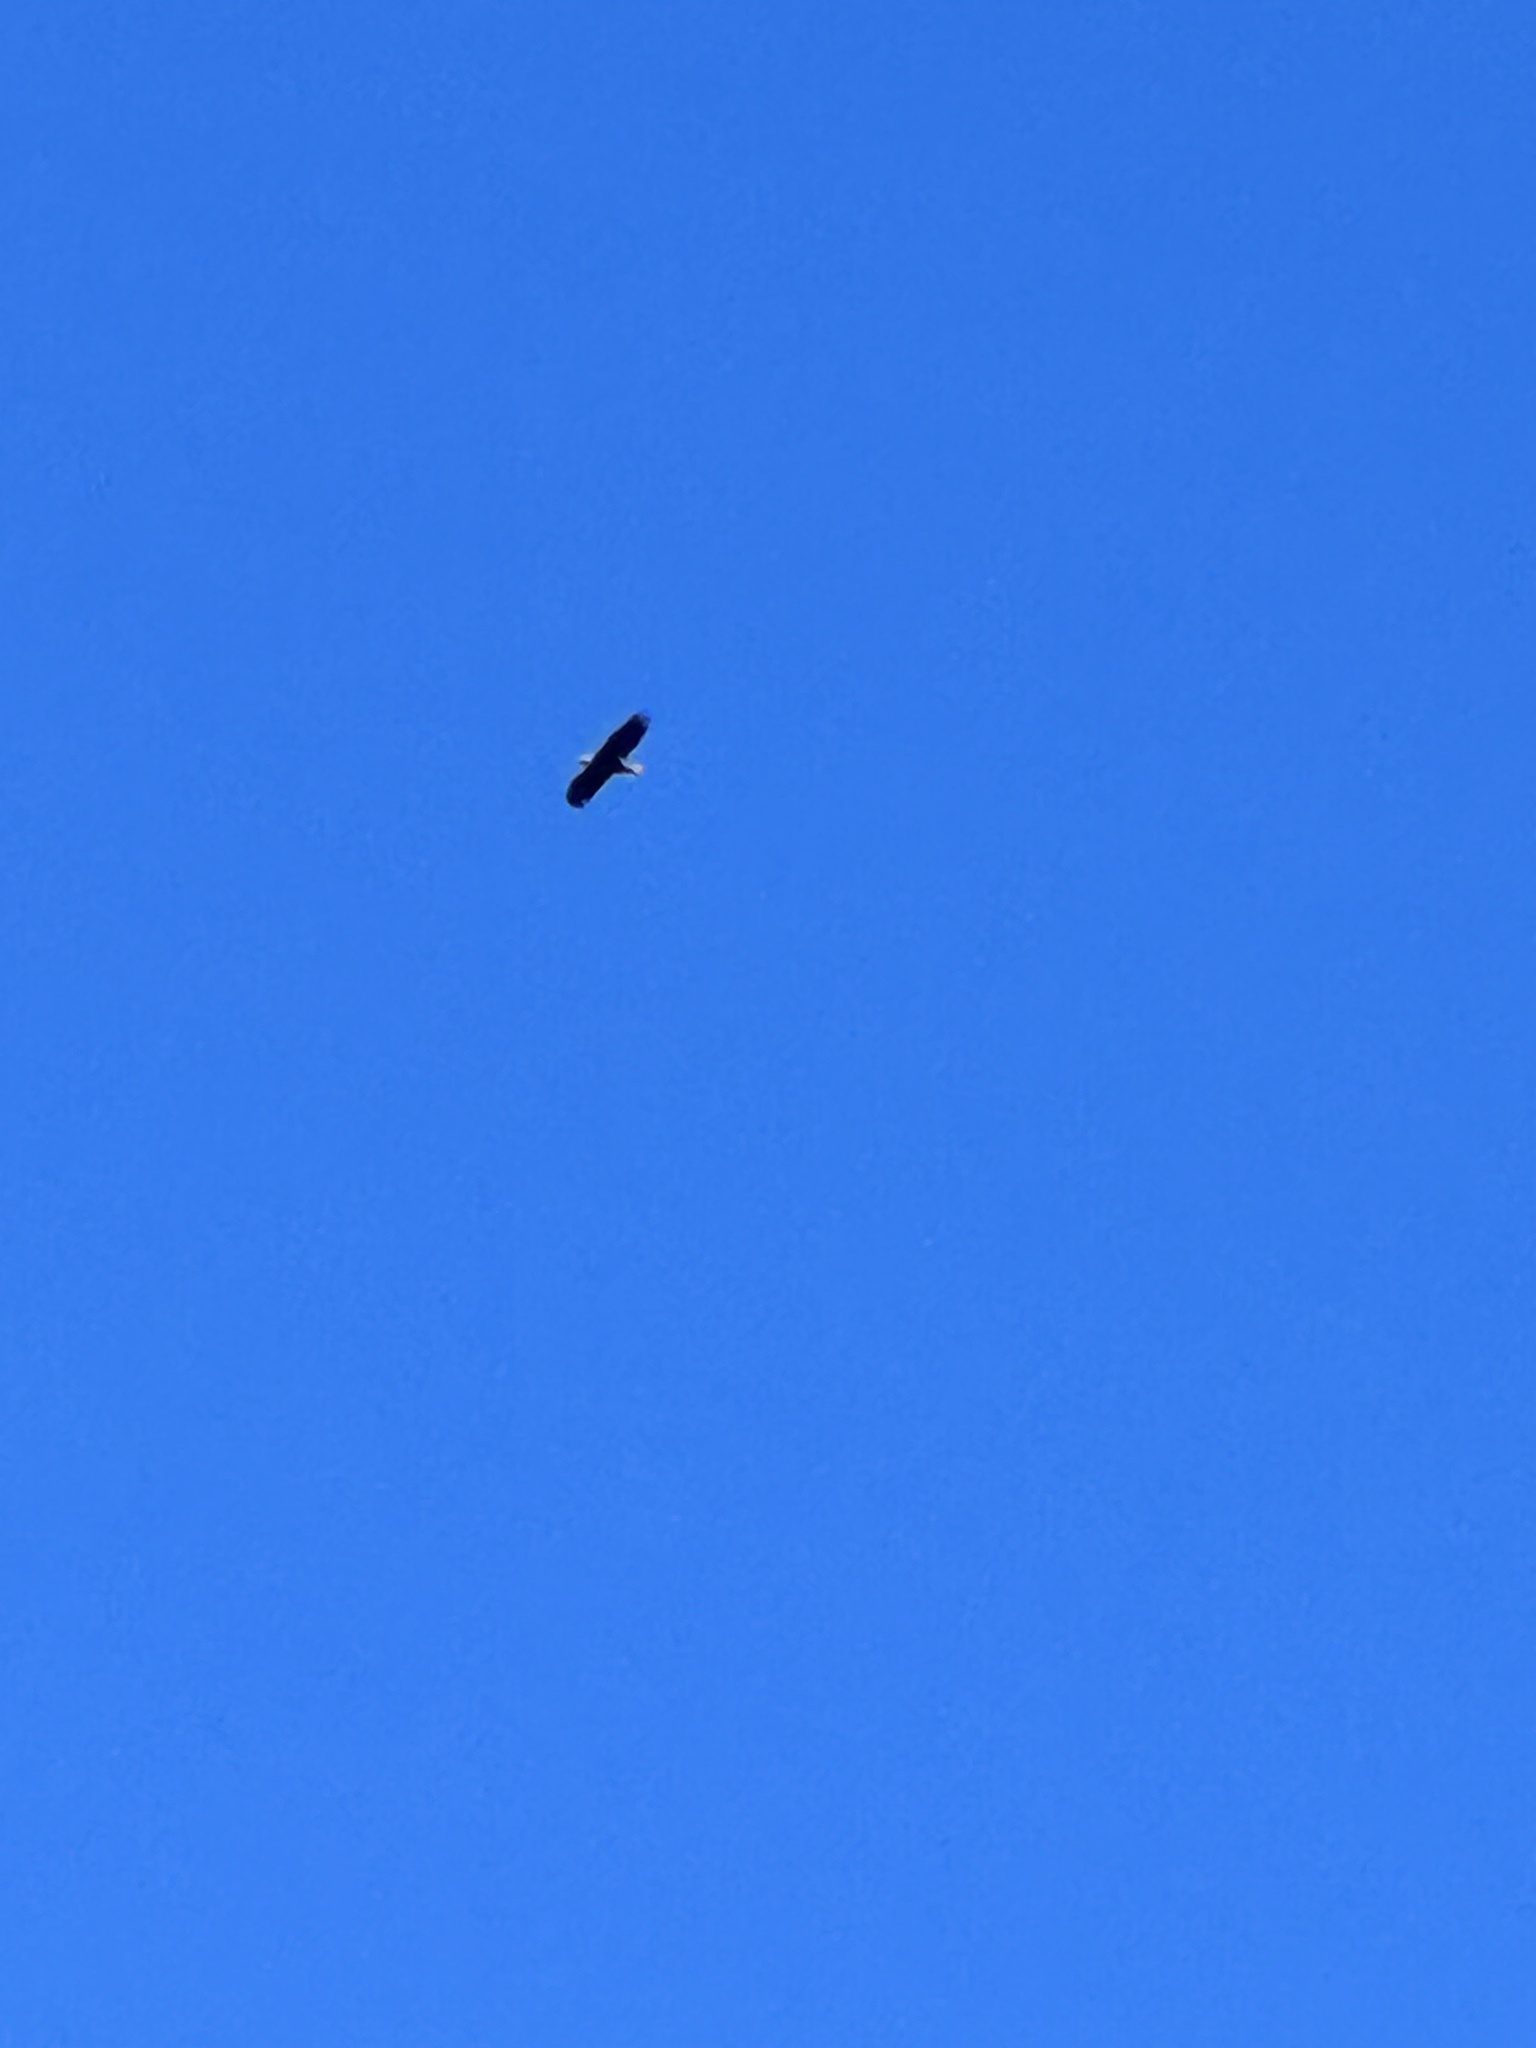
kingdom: Animalia
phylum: Chordata
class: Aves
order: Accipitriformes
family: Accipitridae
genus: Haliaeetus
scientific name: Haliaeetus leucocephalus
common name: Bald eagle
